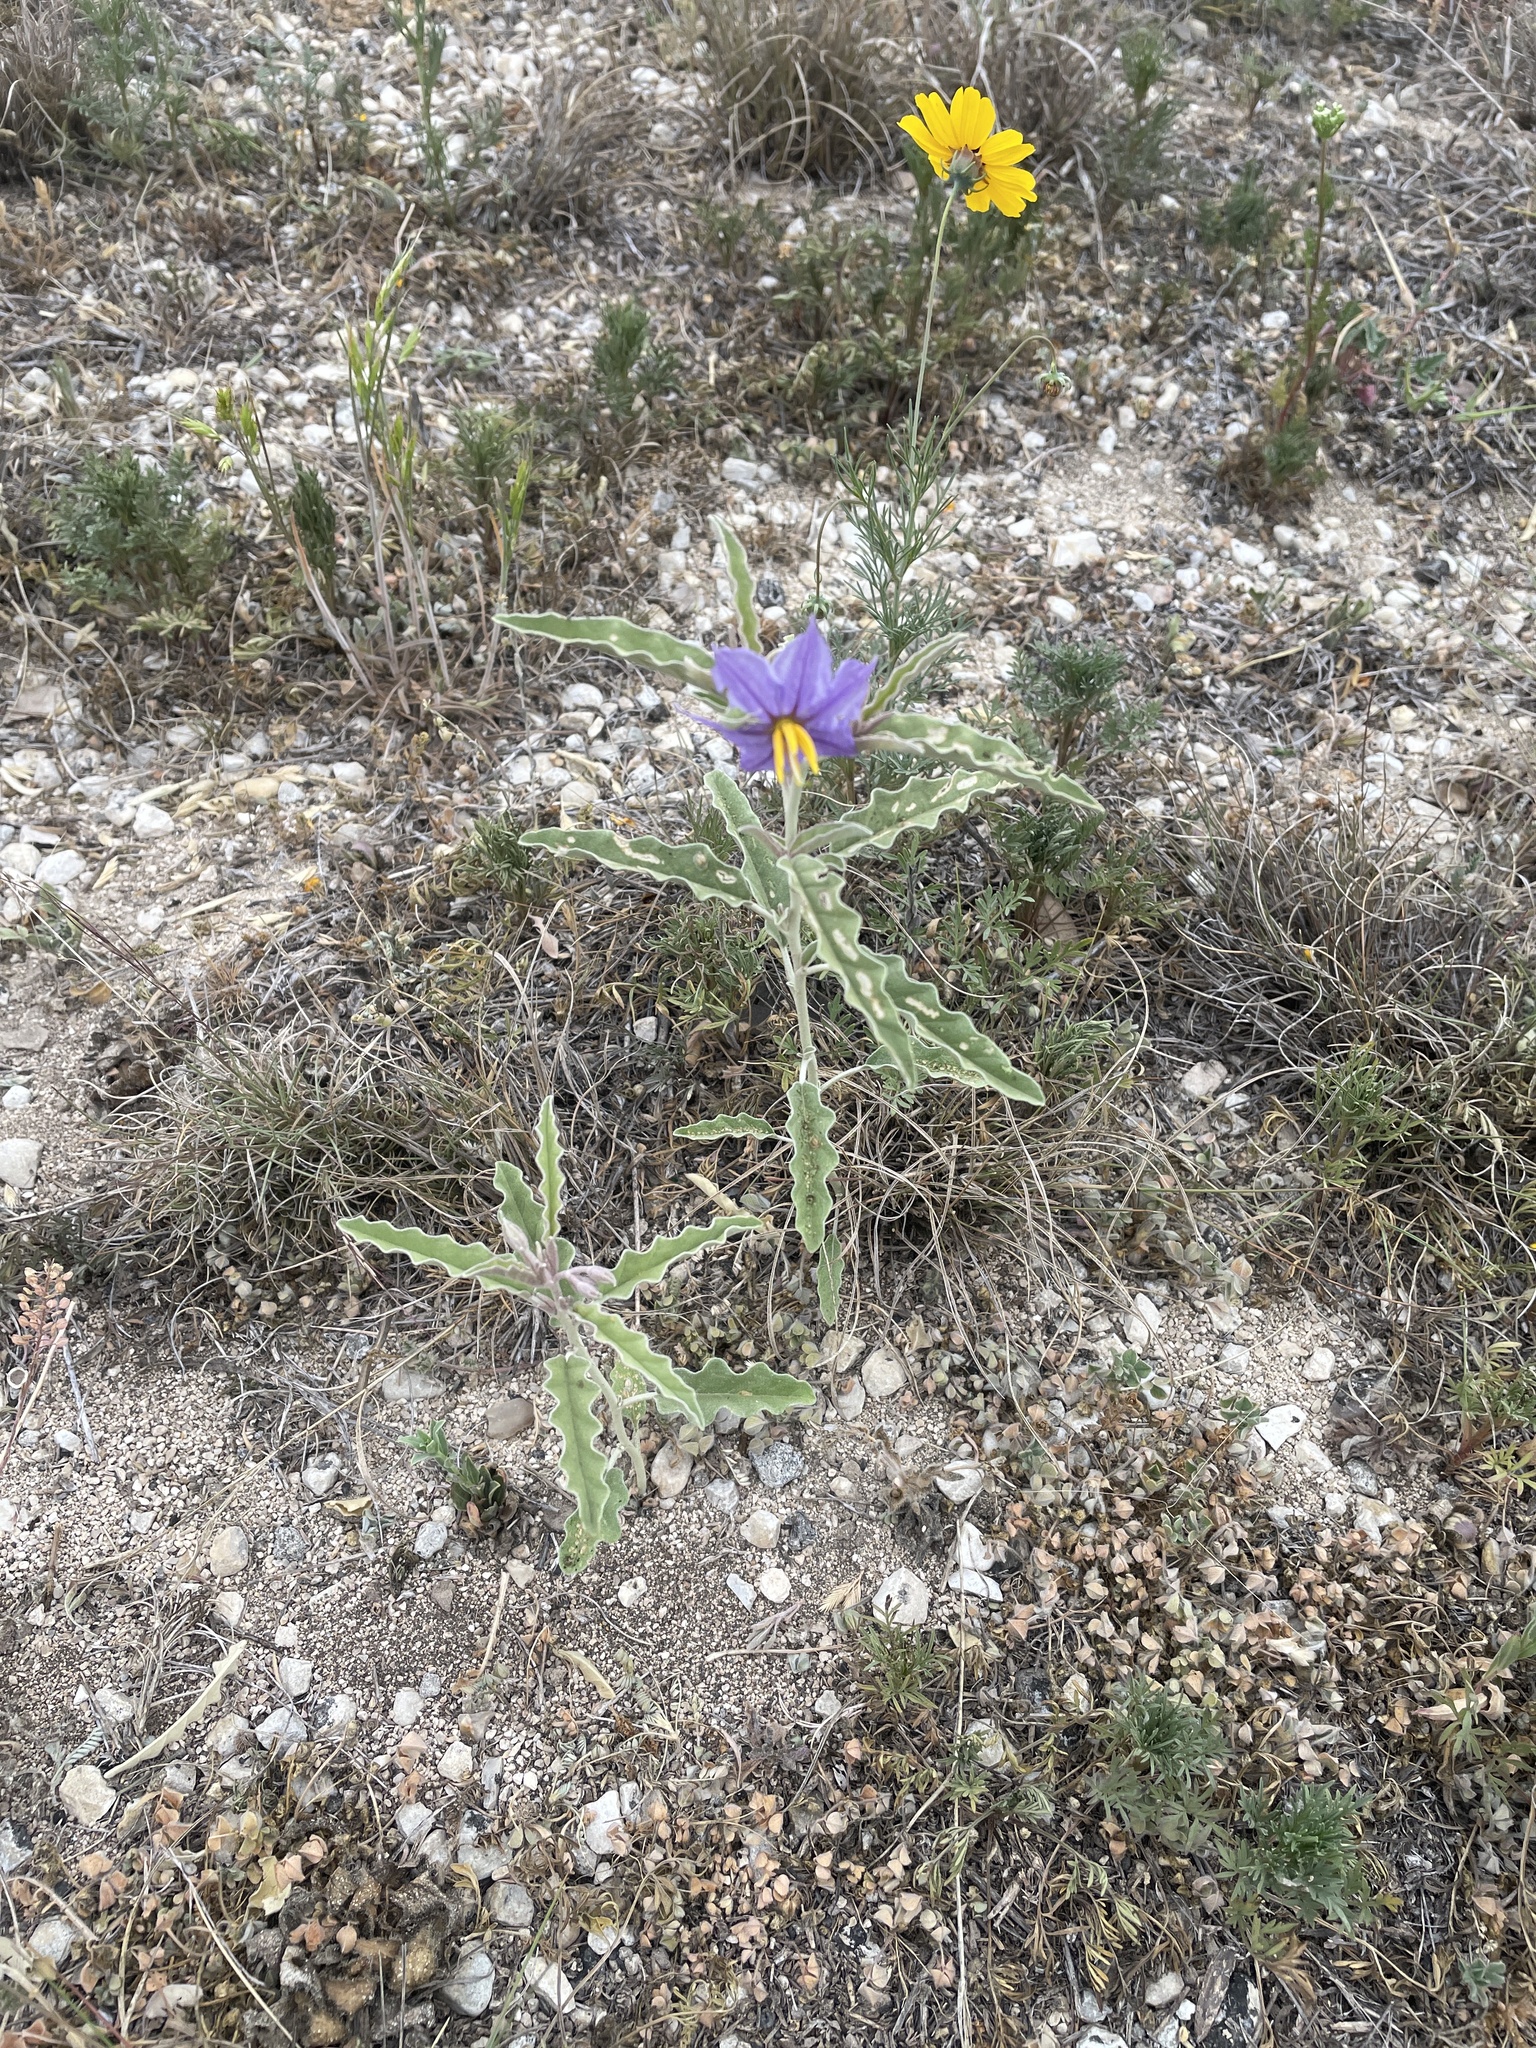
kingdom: Plantae
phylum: Tracheophyta
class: Magnoliopsida
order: Solanales
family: Solanaceae
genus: Solanum
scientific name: Solanum elaeagnifolium
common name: Silverleaf nightshade
